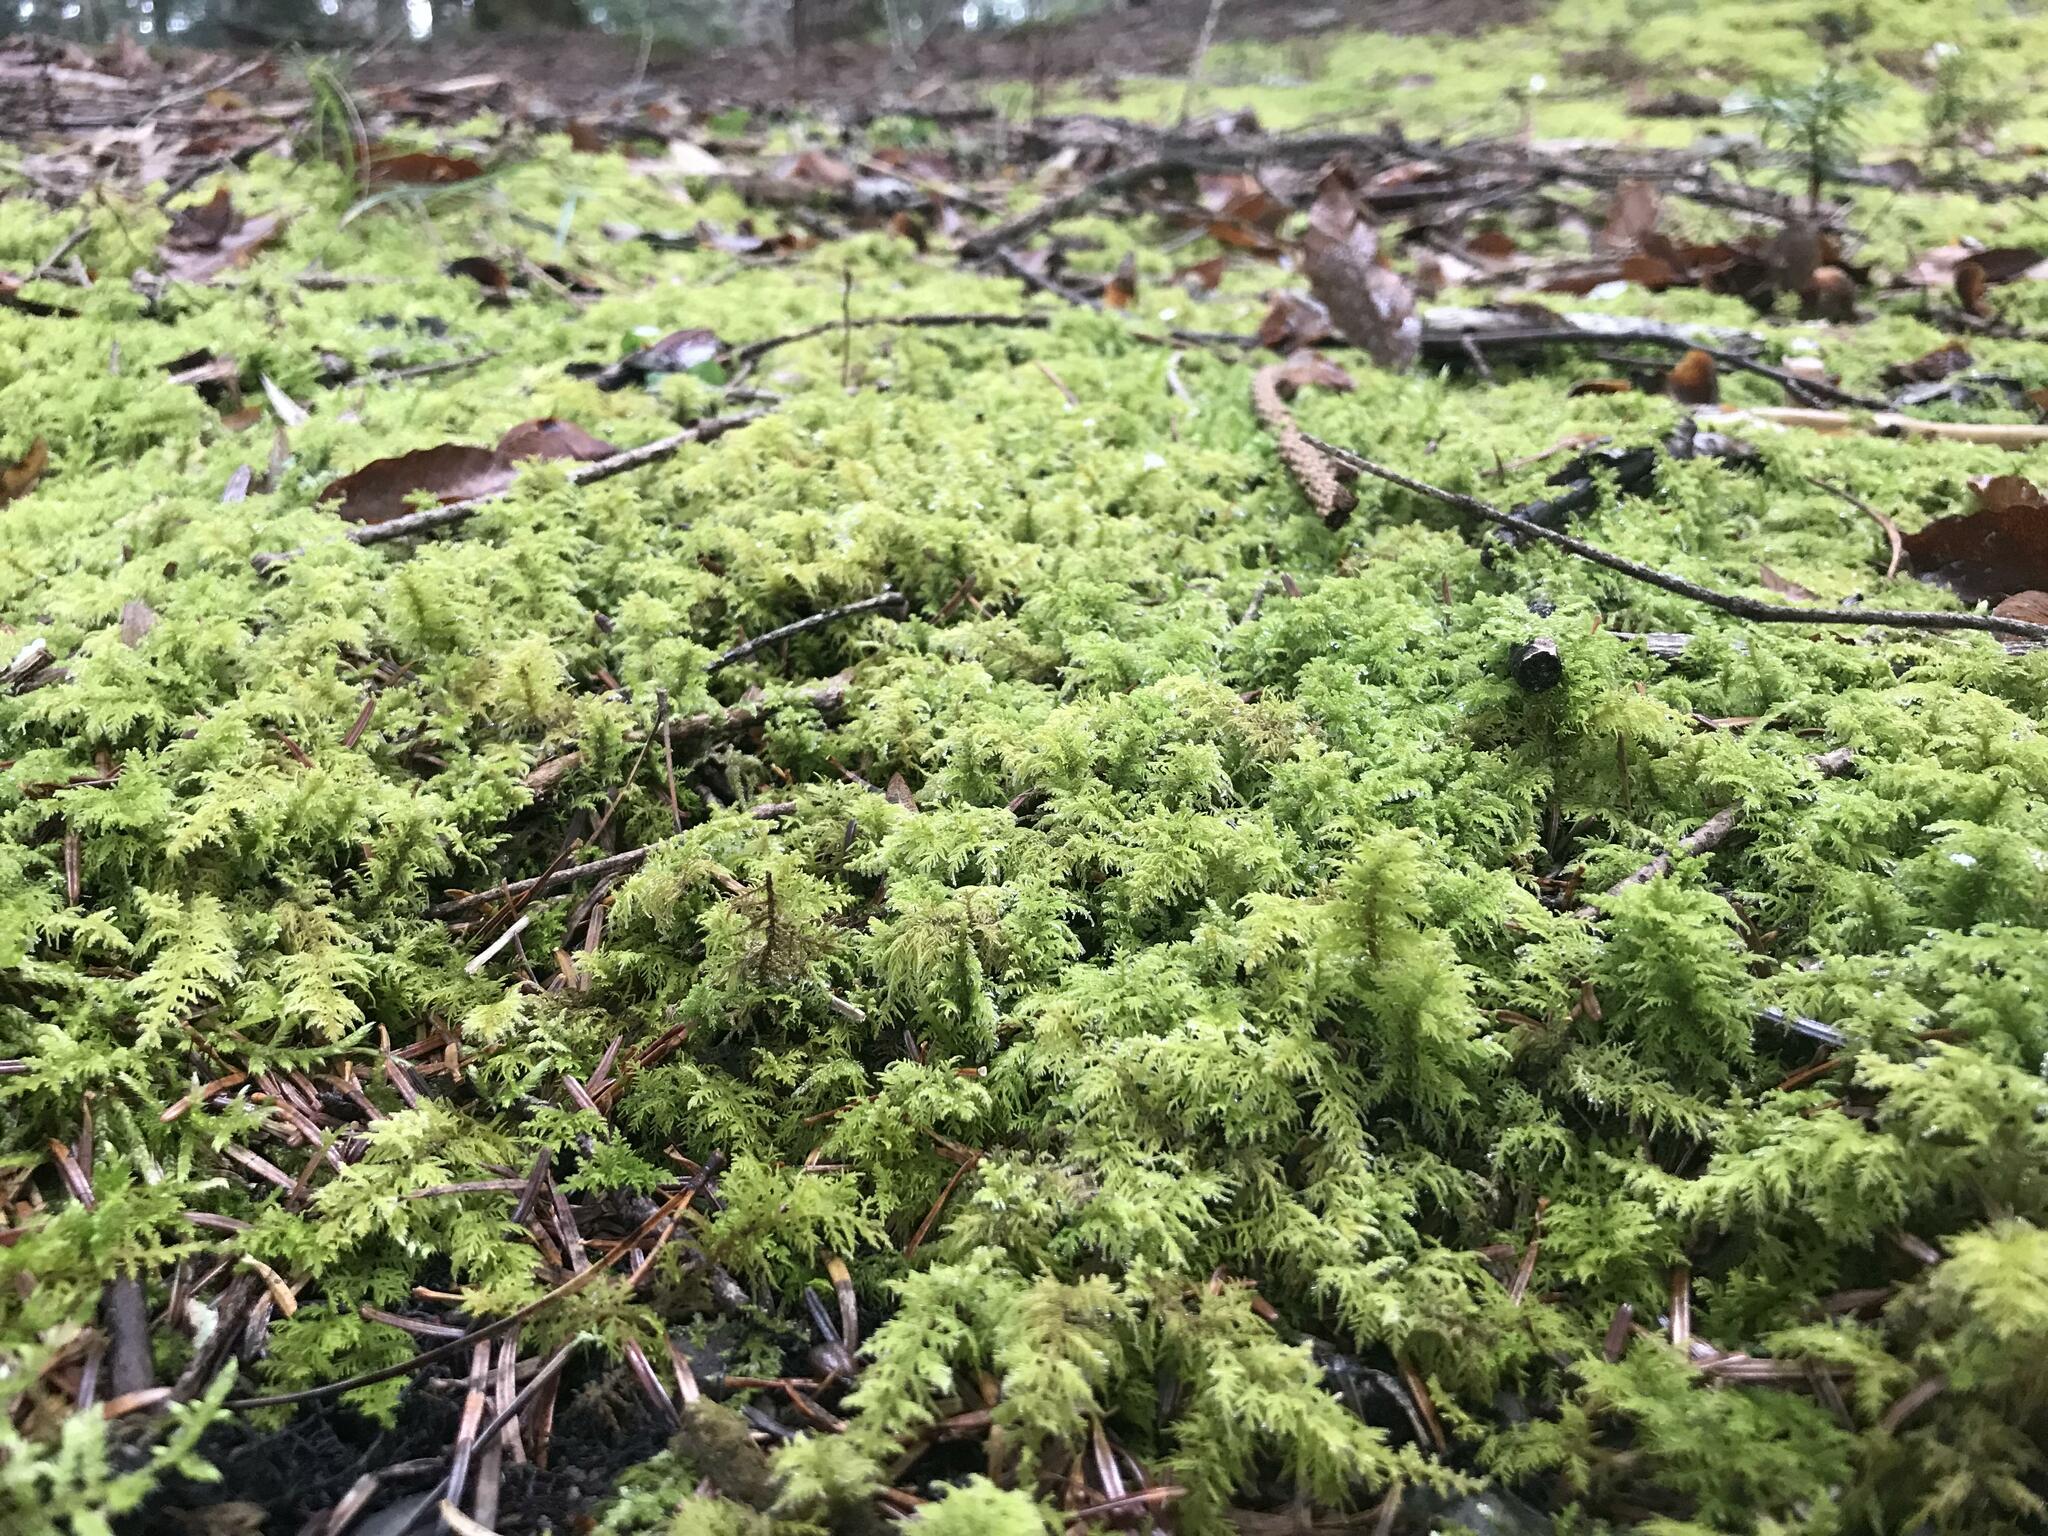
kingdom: Plantae
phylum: Bryophyta
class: Bryopsida
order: Hypnales
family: Thuidiaceae
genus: Thuidium
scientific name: Thuidium tamariscinum
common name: Common tamarisk-moss
